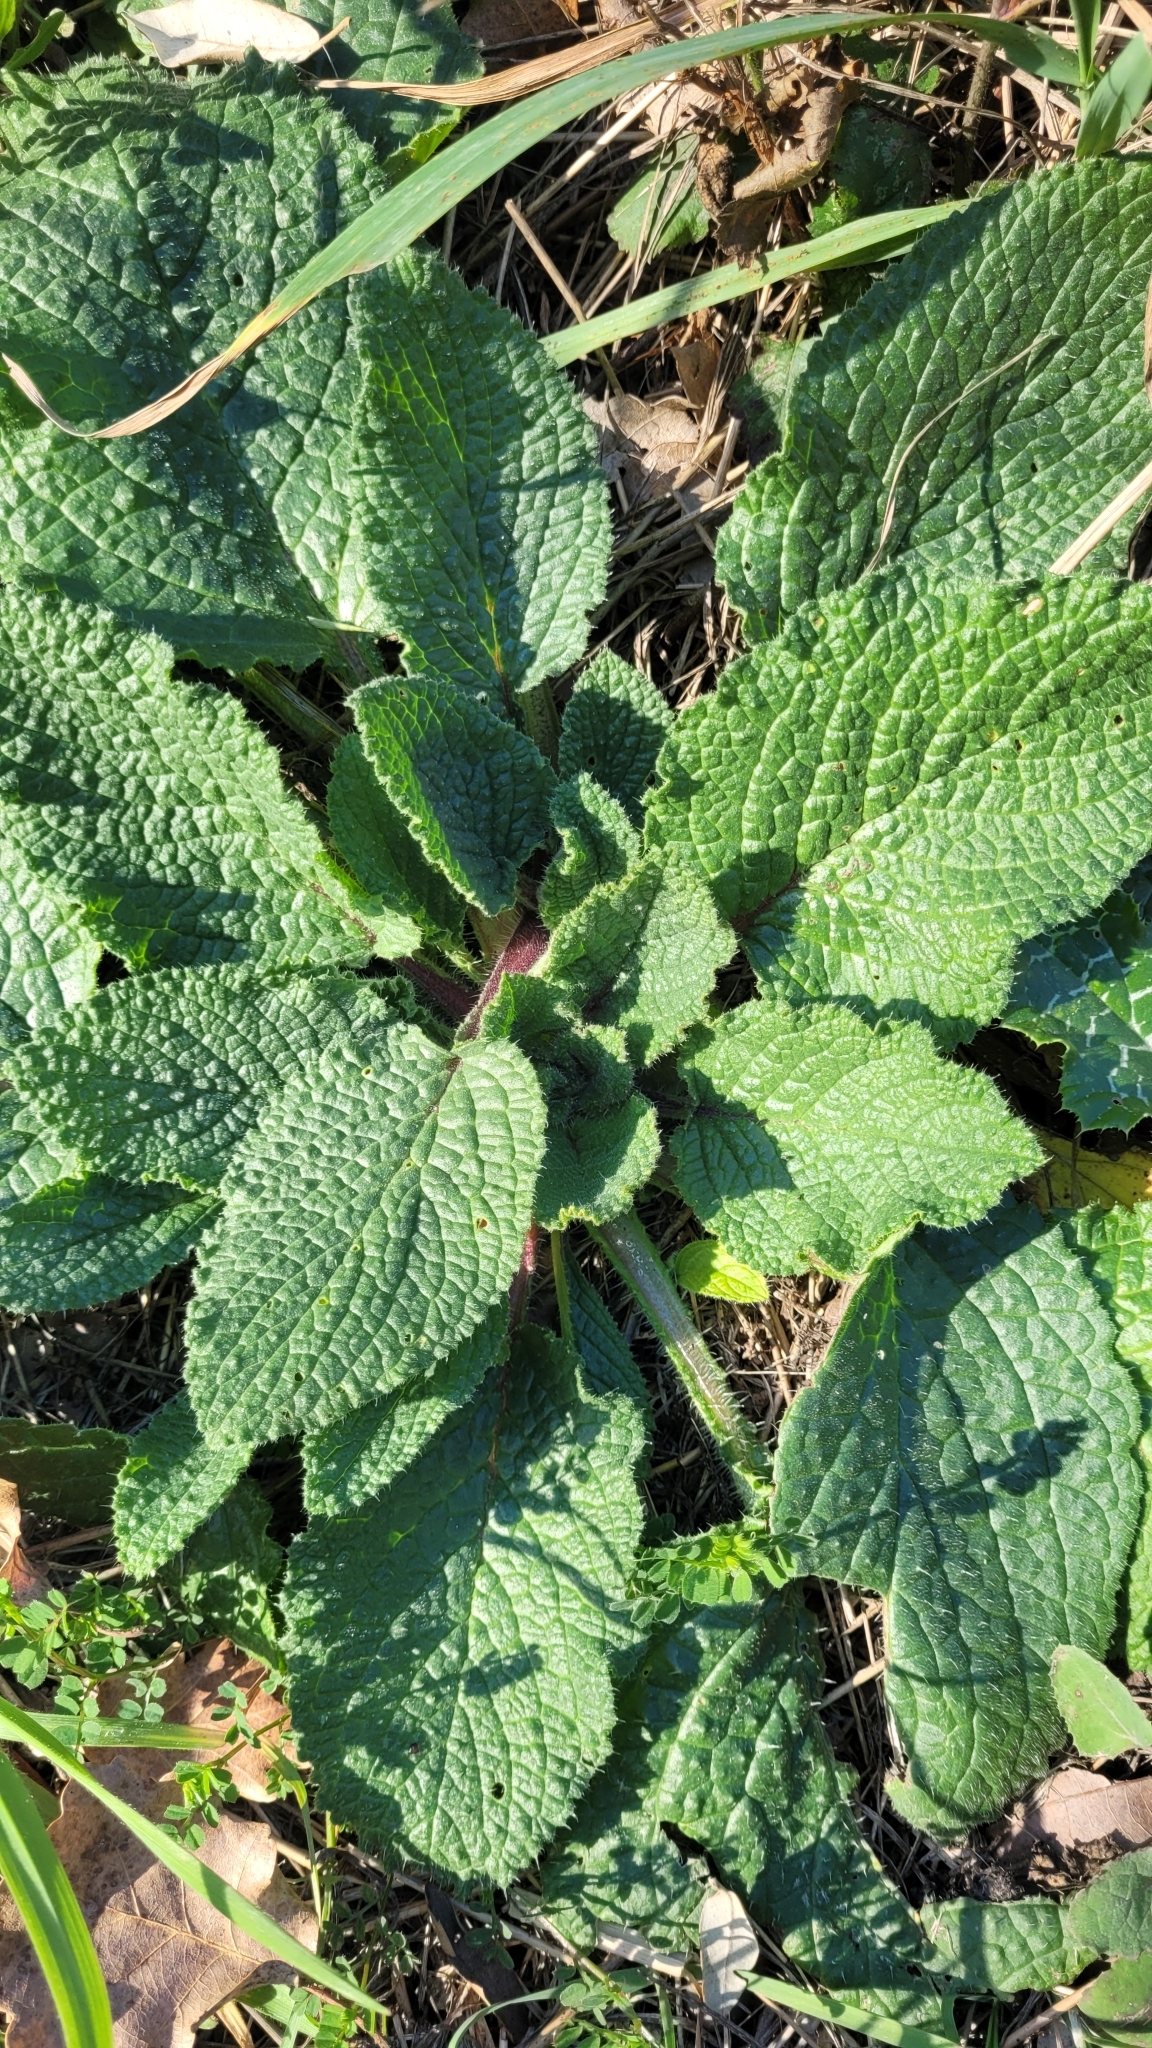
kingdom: Plantae
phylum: Tracheophyta
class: Magnoliopsida
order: Boraginales
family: Boraginaceae
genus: Borago
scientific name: Borago officinalis
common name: Borage
